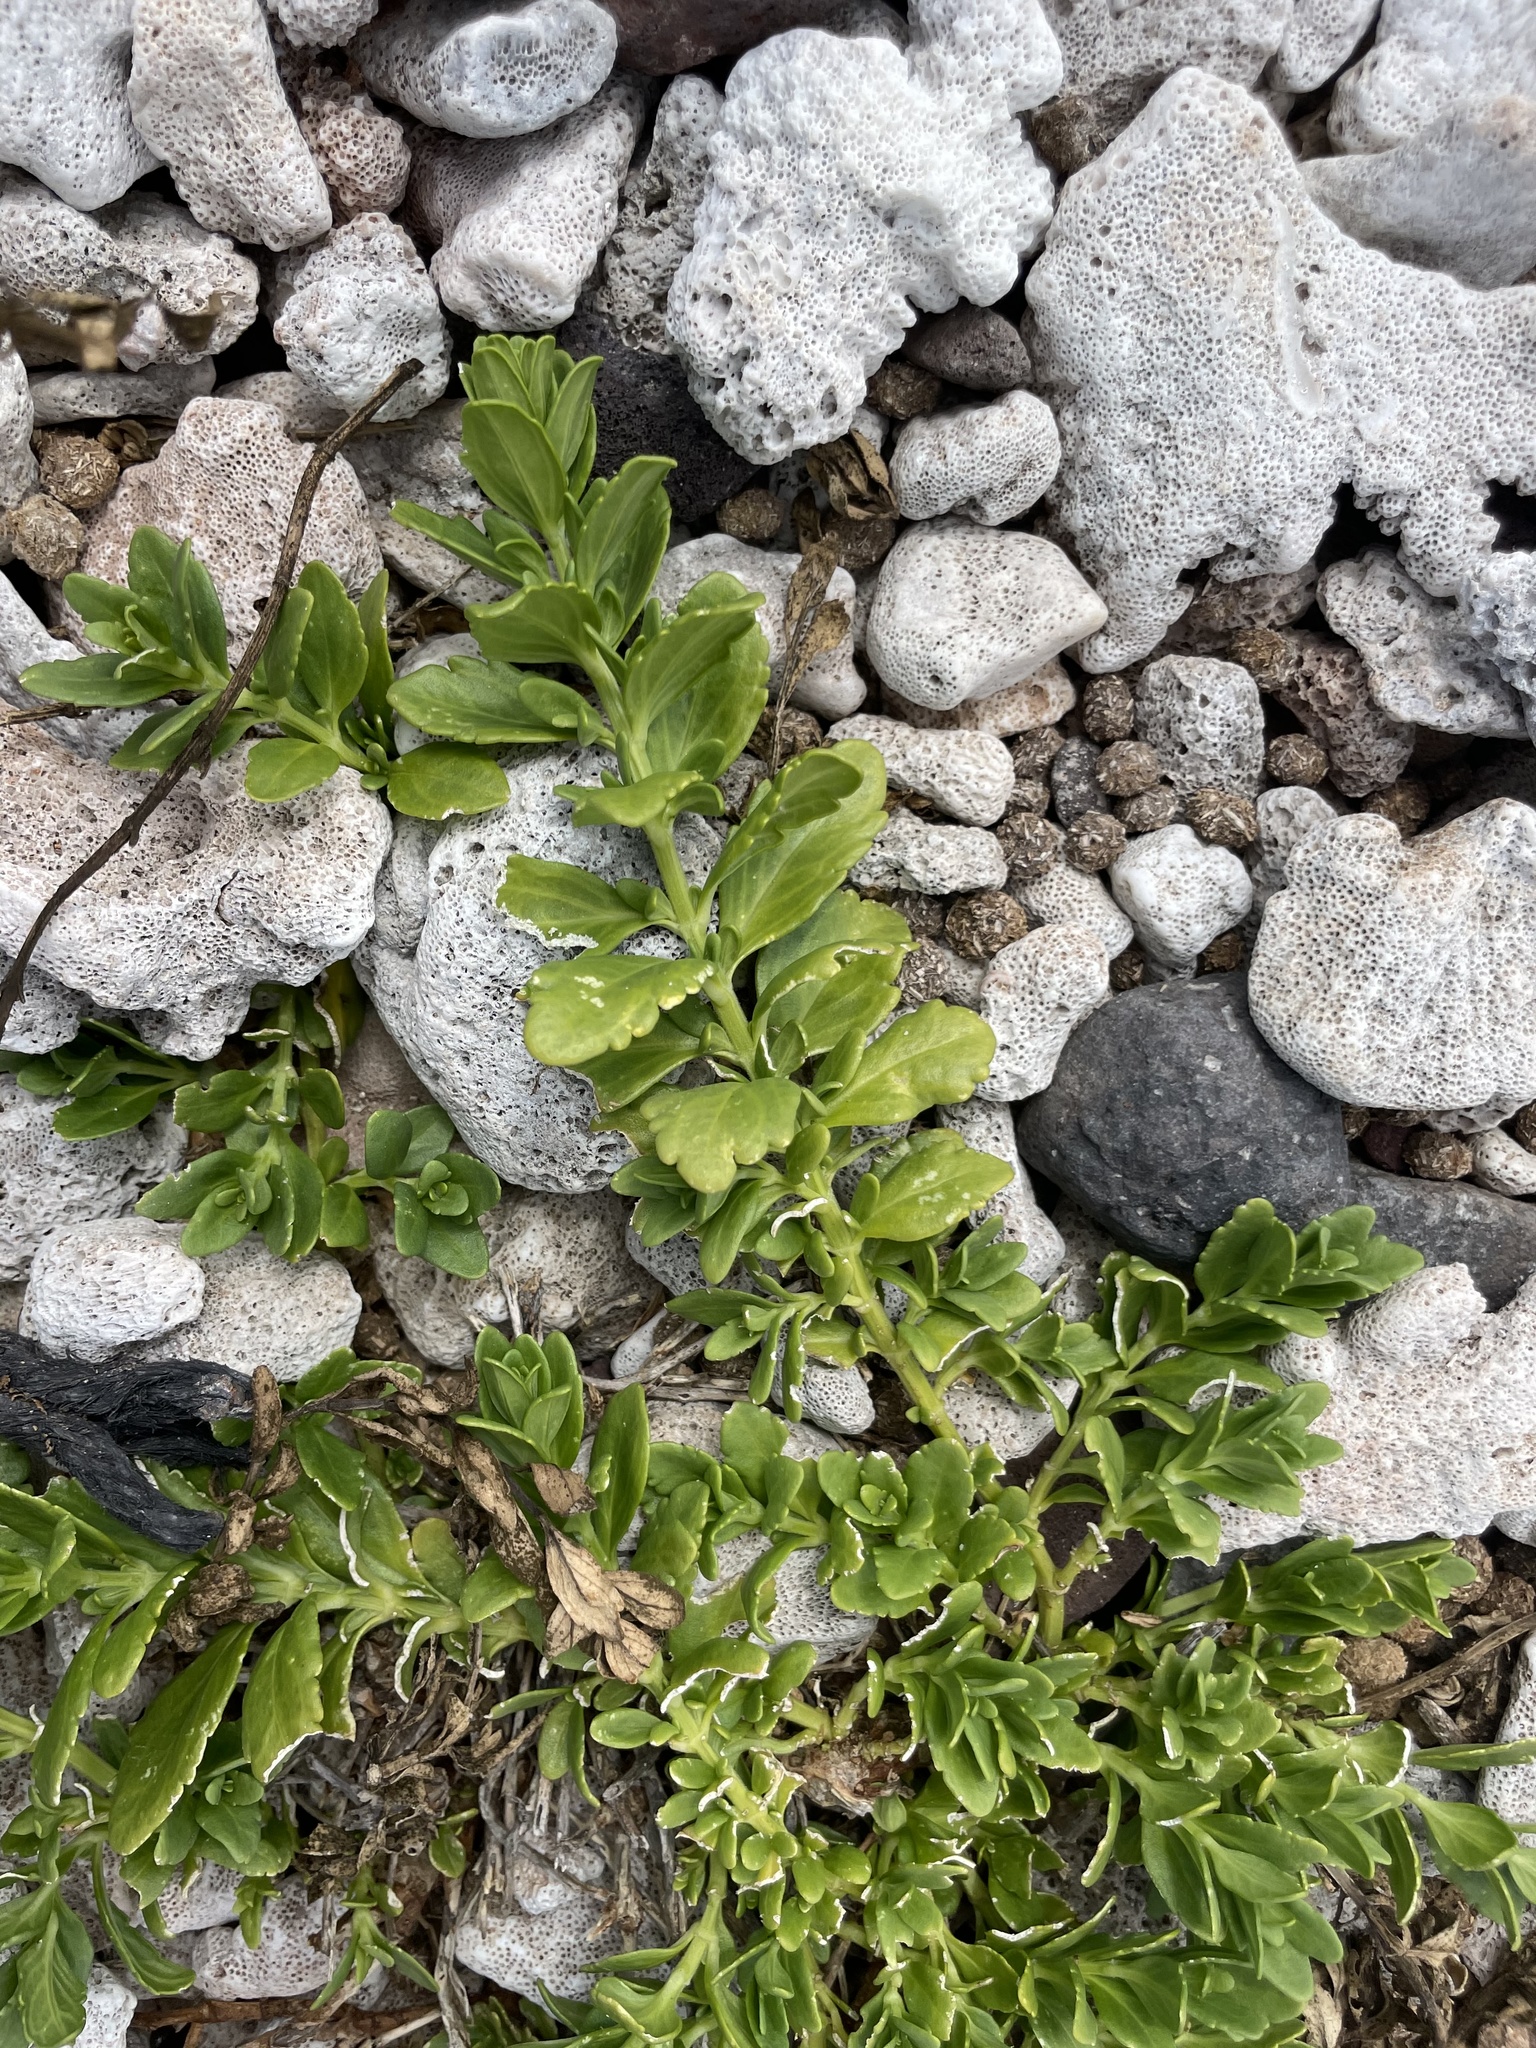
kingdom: Plantae
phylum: Tracheophyta
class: Magnoliopsida
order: Lamiales
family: Lamiaceae
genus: Teucrium
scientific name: Teucrium townsendii
